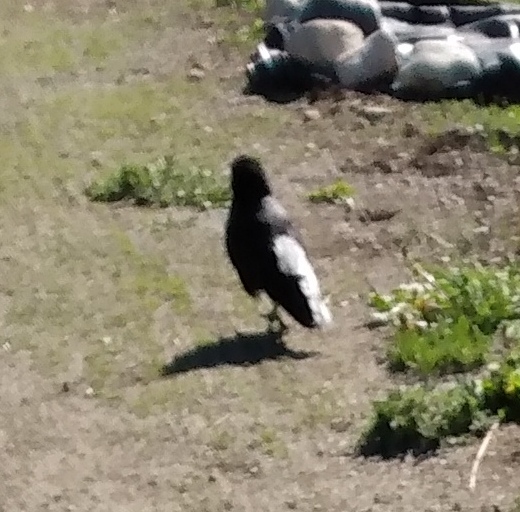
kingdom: Animalia
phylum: Chordata
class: Aves
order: Passeriformes
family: Corvidae
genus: Corvus
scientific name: Corvus brachyrhynchos
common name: American crow
